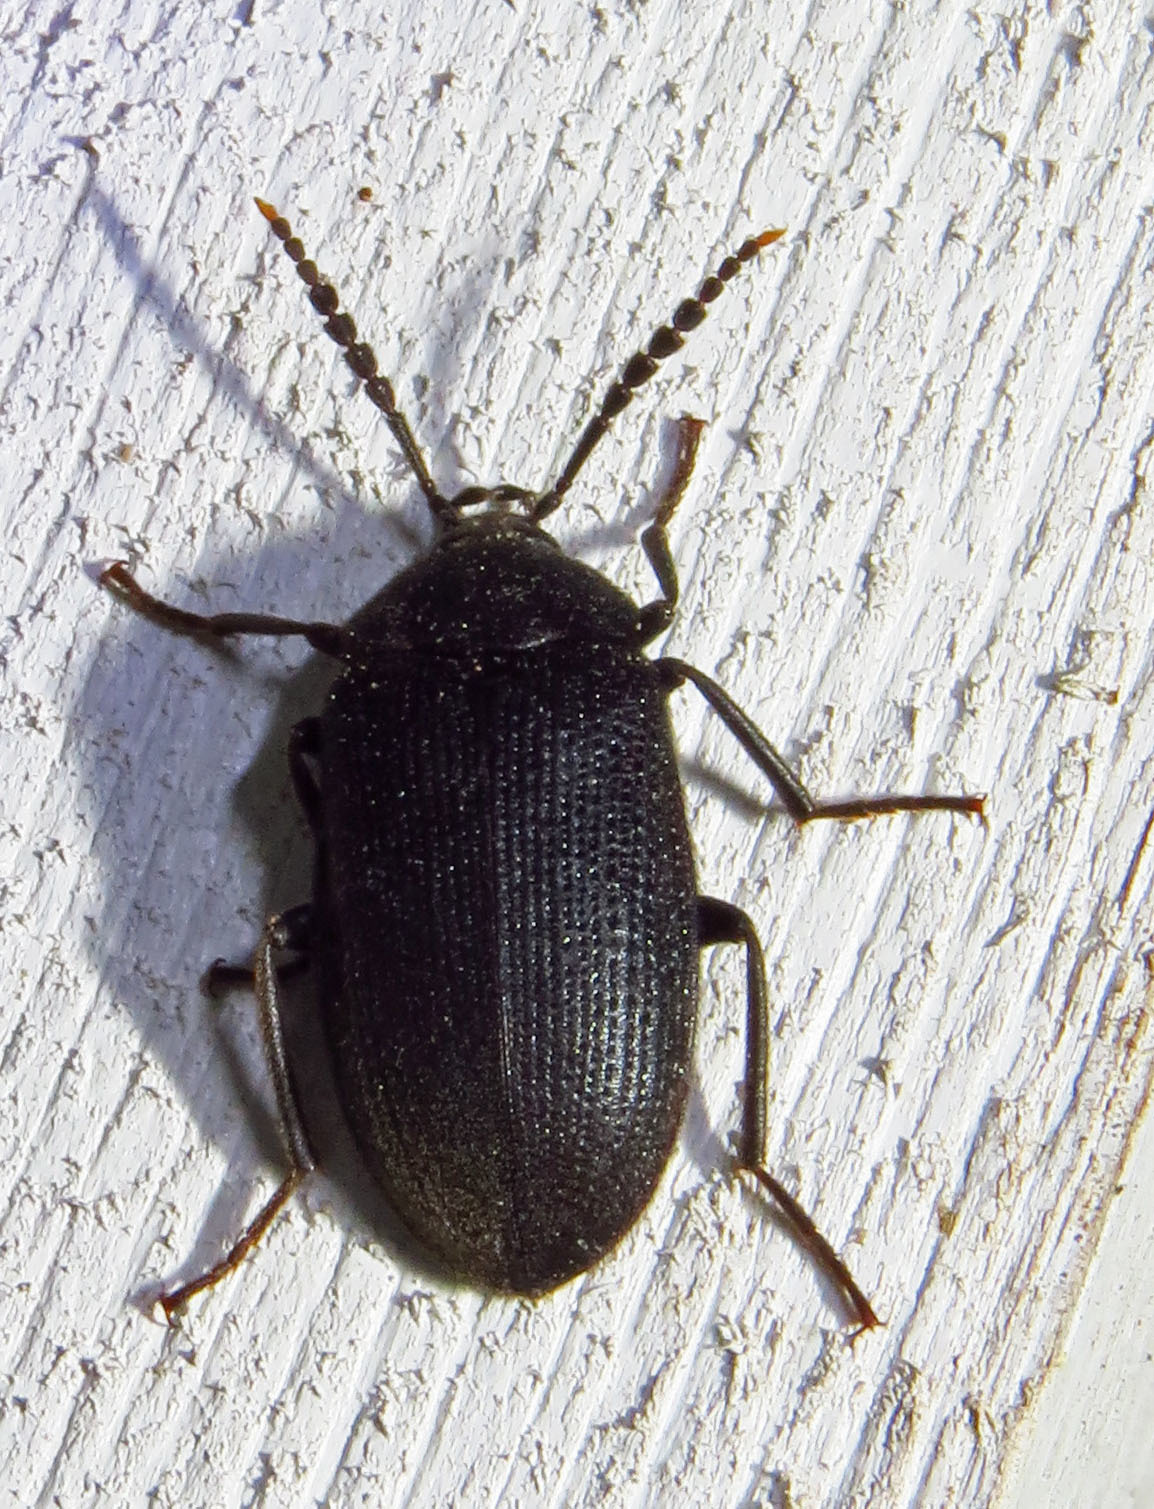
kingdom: Animalia
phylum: Arthropoda
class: Insecta
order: Coleoptera
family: Tetratomidae
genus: Penthe
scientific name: Penthe pimelia
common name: Velvety bark beetle
